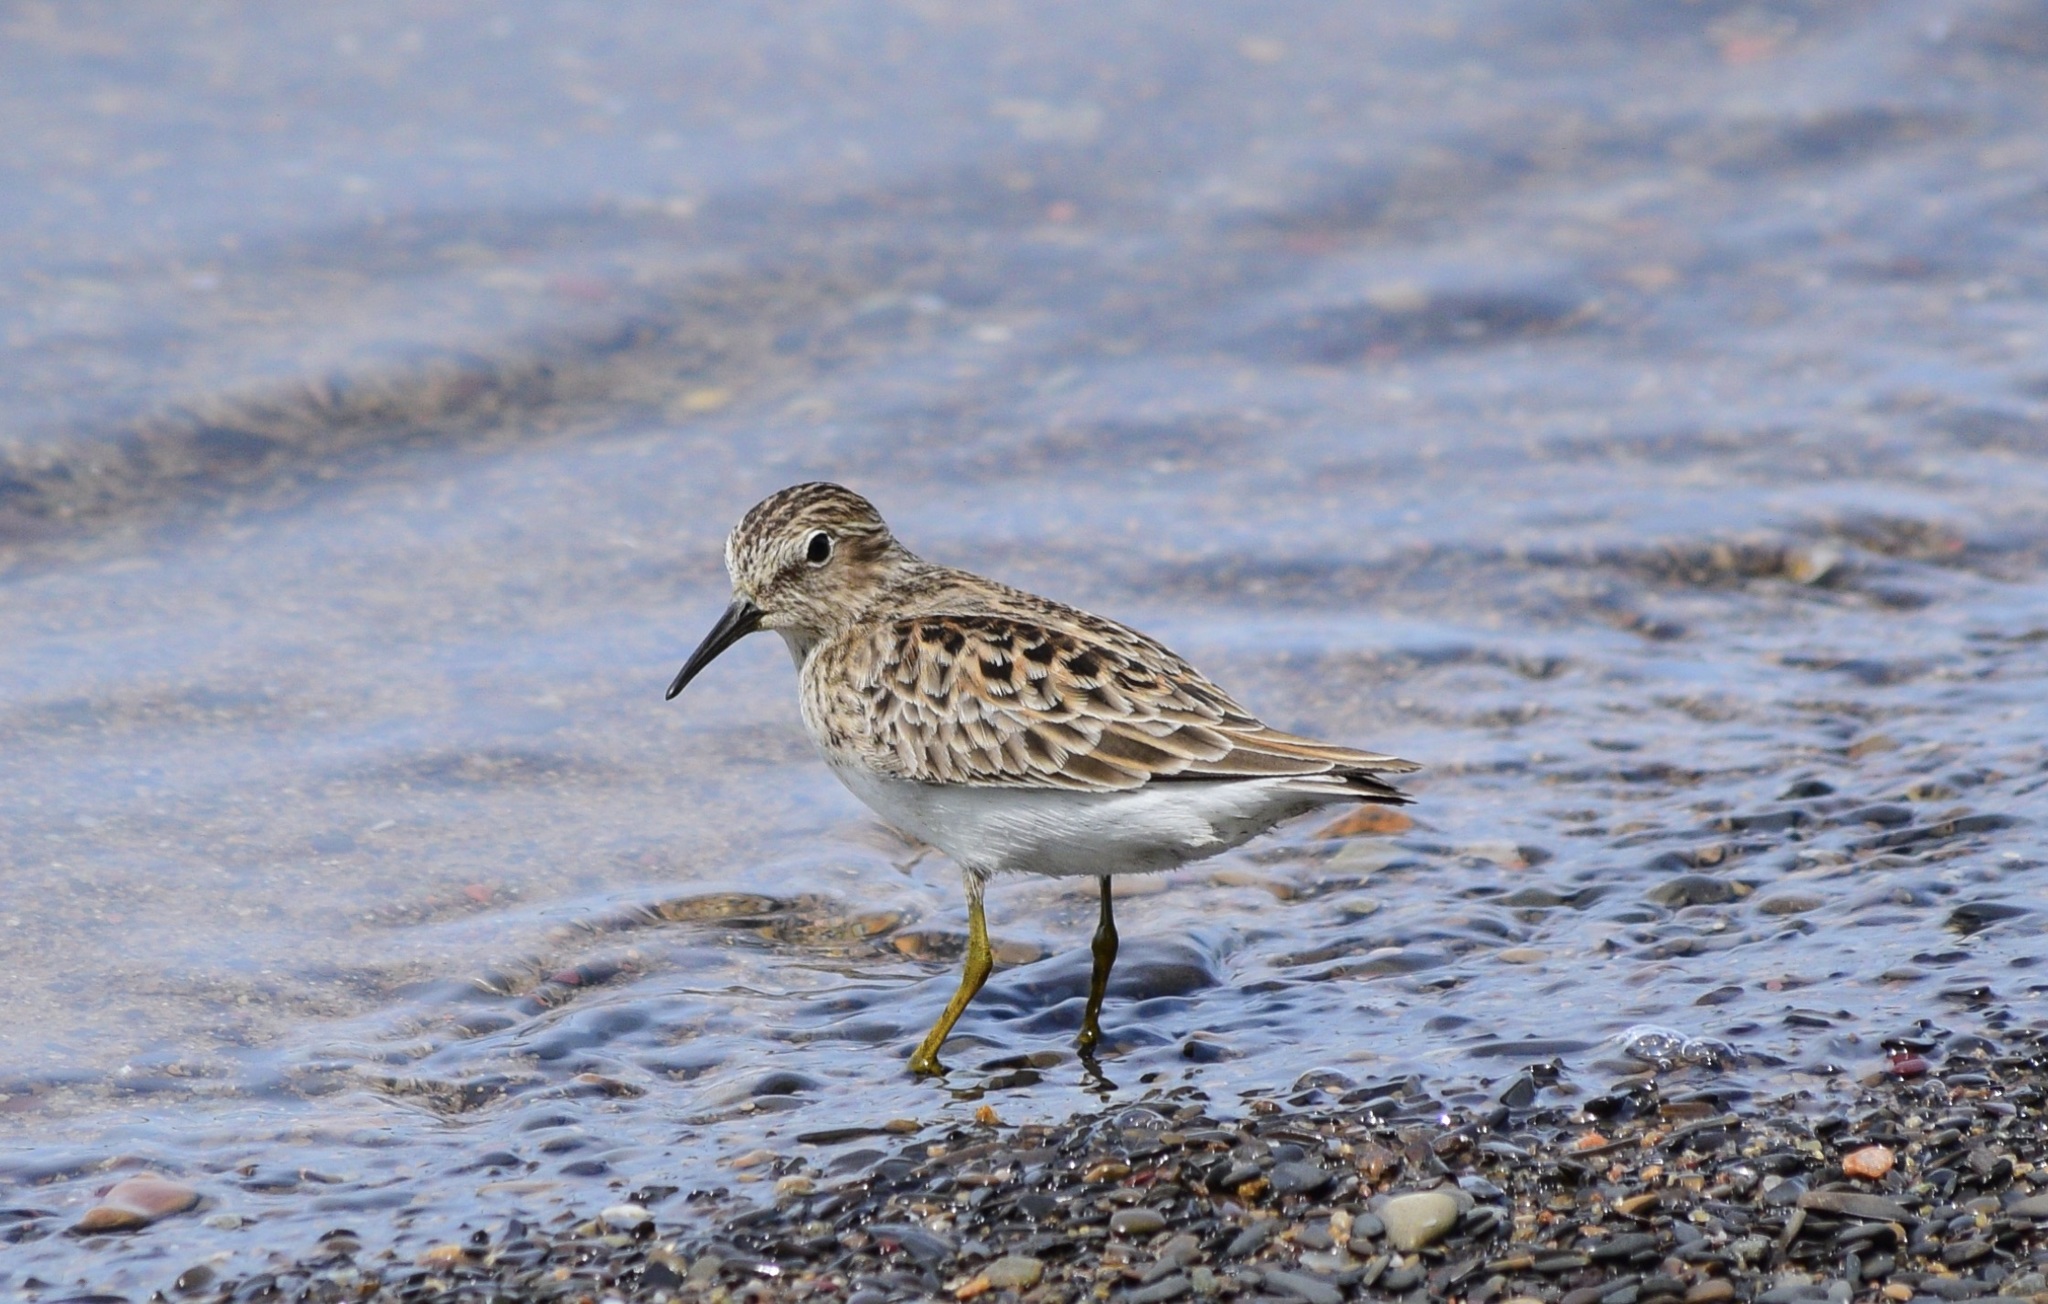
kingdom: Animalia
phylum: Chordata
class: Aves
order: Charadriiformes
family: Scolopacidae
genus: Calidris
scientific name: Calidris minutilla
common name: Least sandpiper
